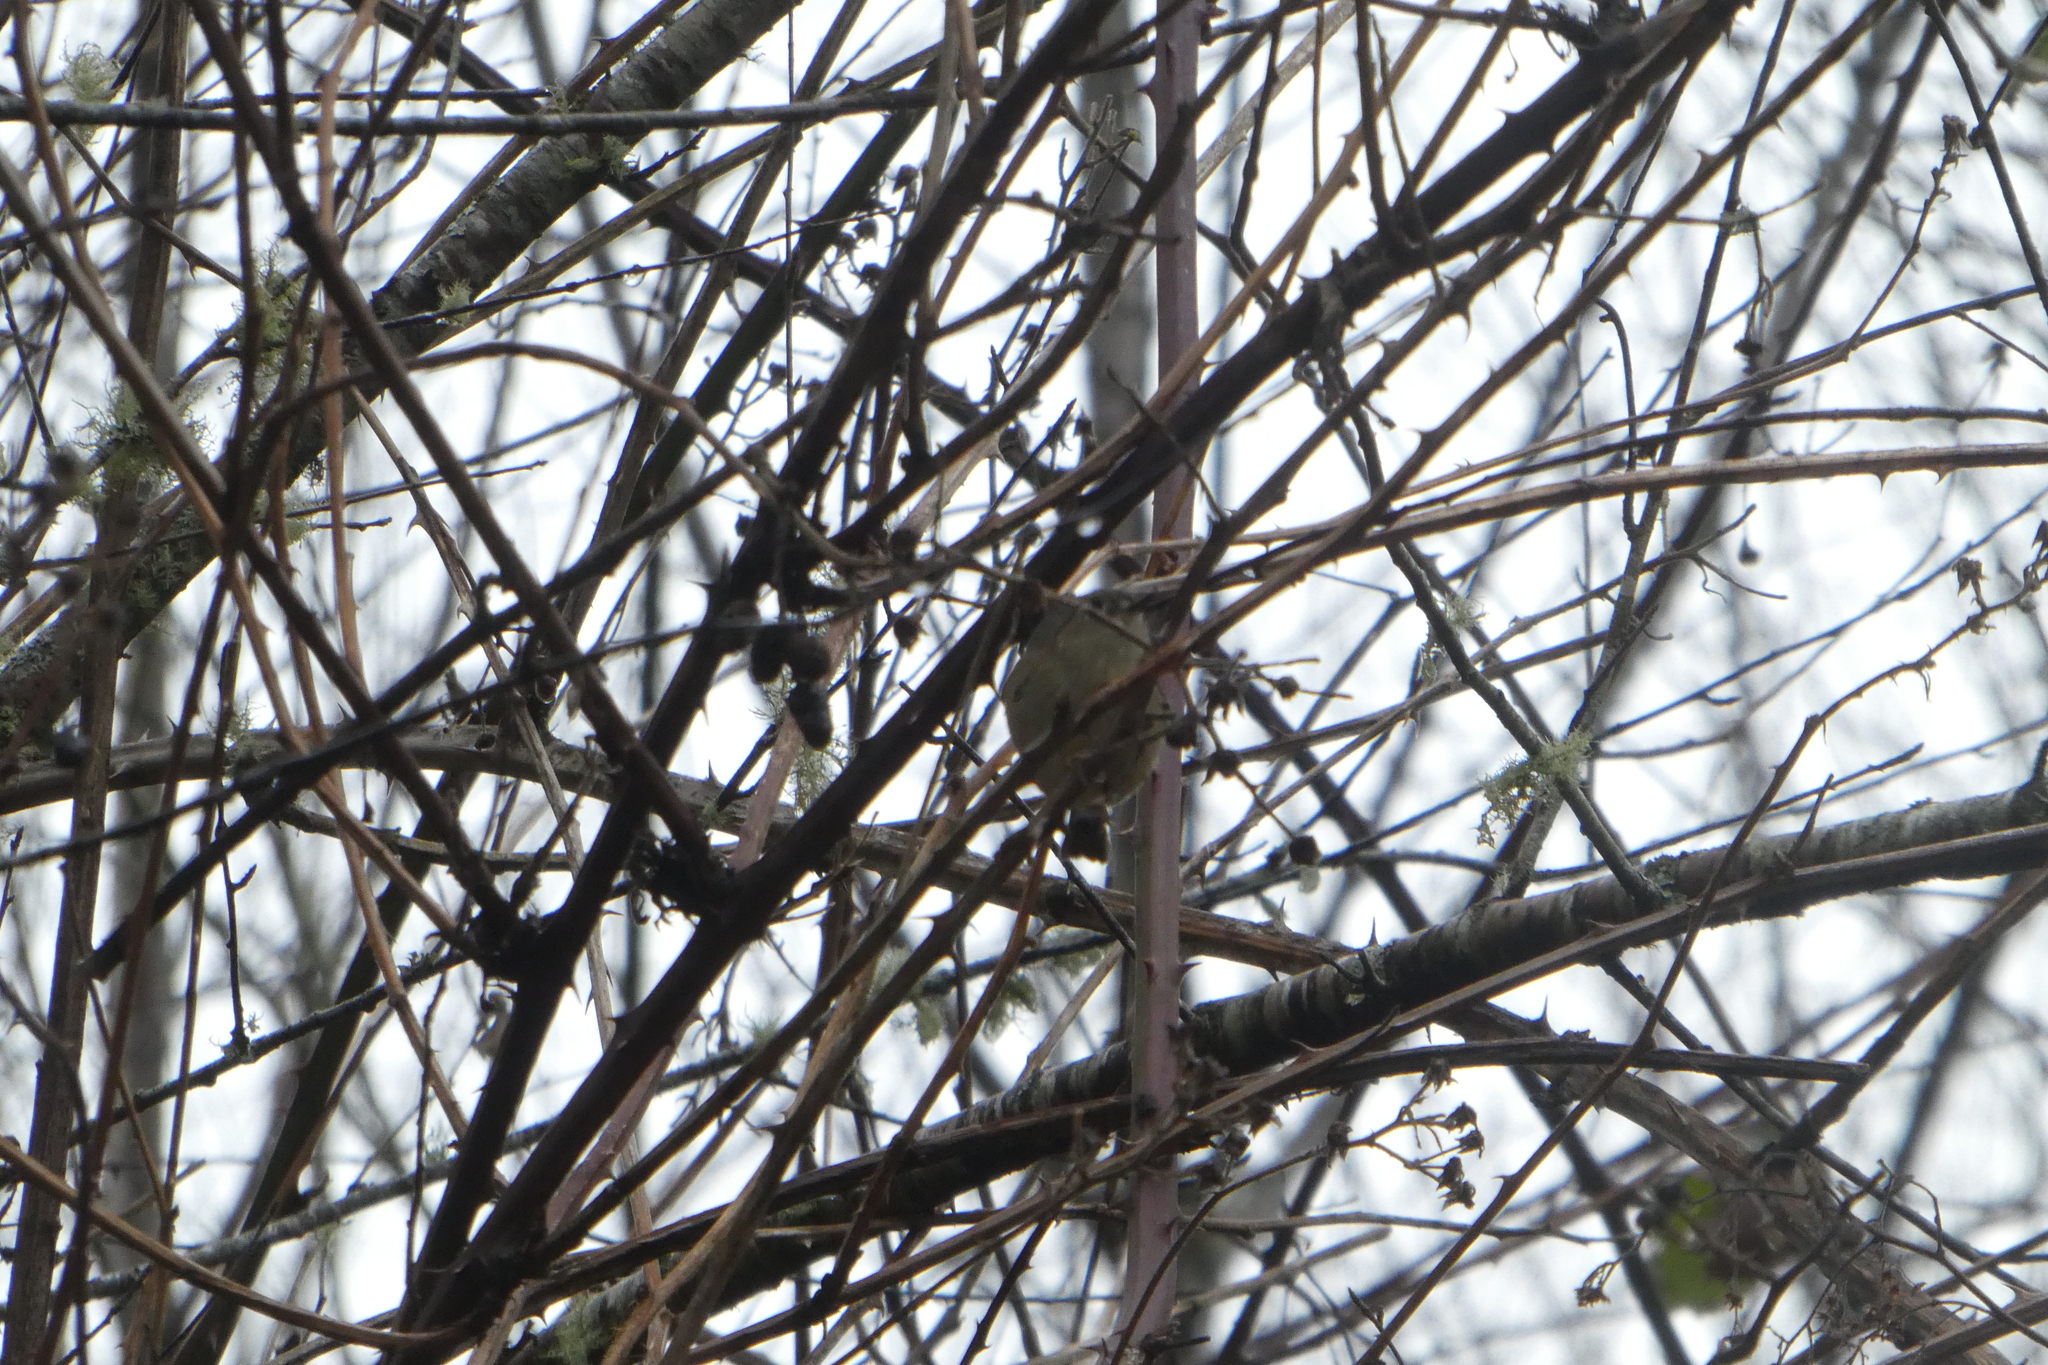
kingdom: Animalia
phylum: Chordata
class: Aves
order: Passeriformes
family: Regulidae
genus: Regulus
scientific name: Regulus calendula
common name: Ruby-crowned kinglet
